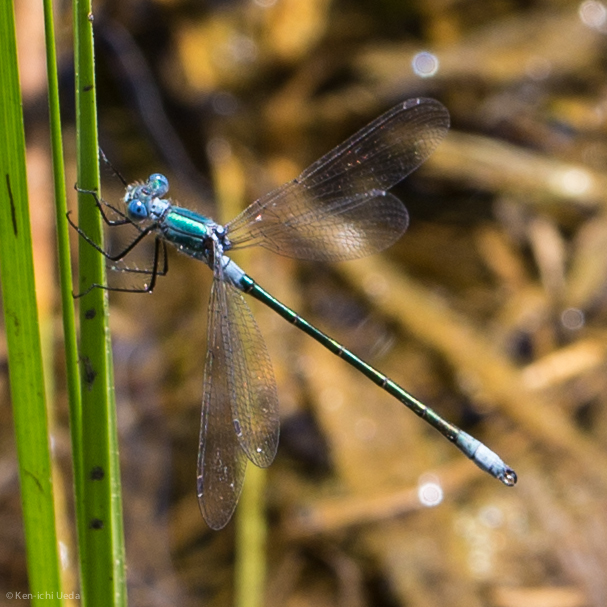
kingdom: Animalia
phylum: Arthropoda
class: Insecta
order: Odonata
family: Lestidae
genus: Lestes
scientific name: Lestes dryas
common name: Scarce emerald damselfly
